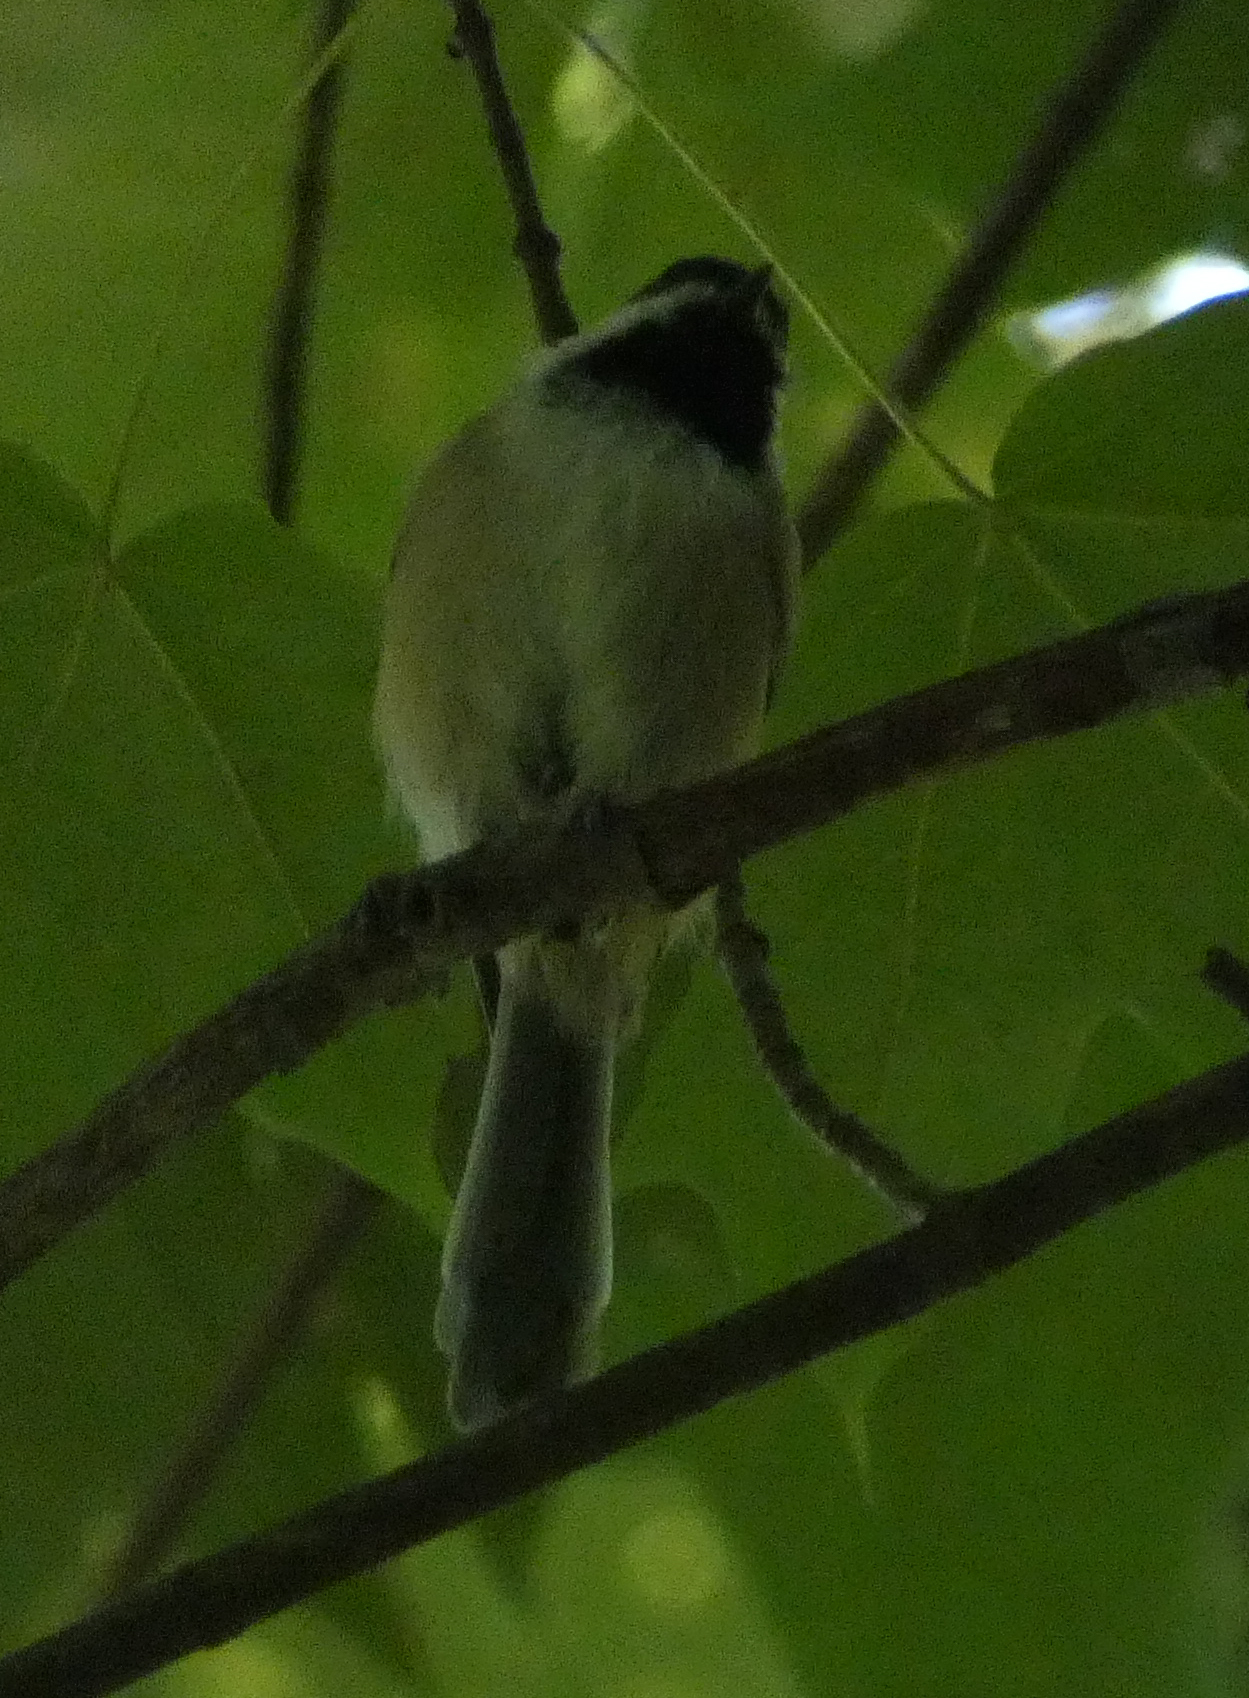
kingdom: Animalia
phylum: Chordata
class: Aves
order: Passeriformes
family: Paridae
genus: Poecile
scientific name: Poecile carolinensis
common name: Carolina chickadee
